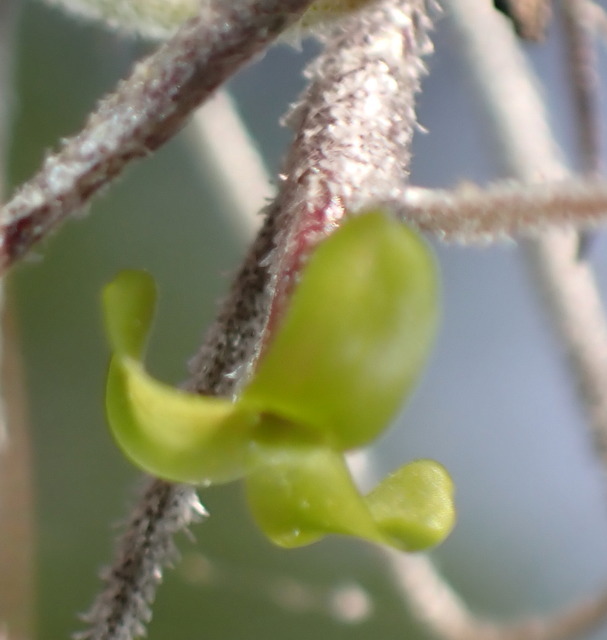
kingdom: Plantae
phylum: Tracheophyta
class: Liliopsida
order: Poales
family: Bromeliaceae
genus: Tillandsia
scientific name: Tillandsia usneoides
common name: Spanish moss
